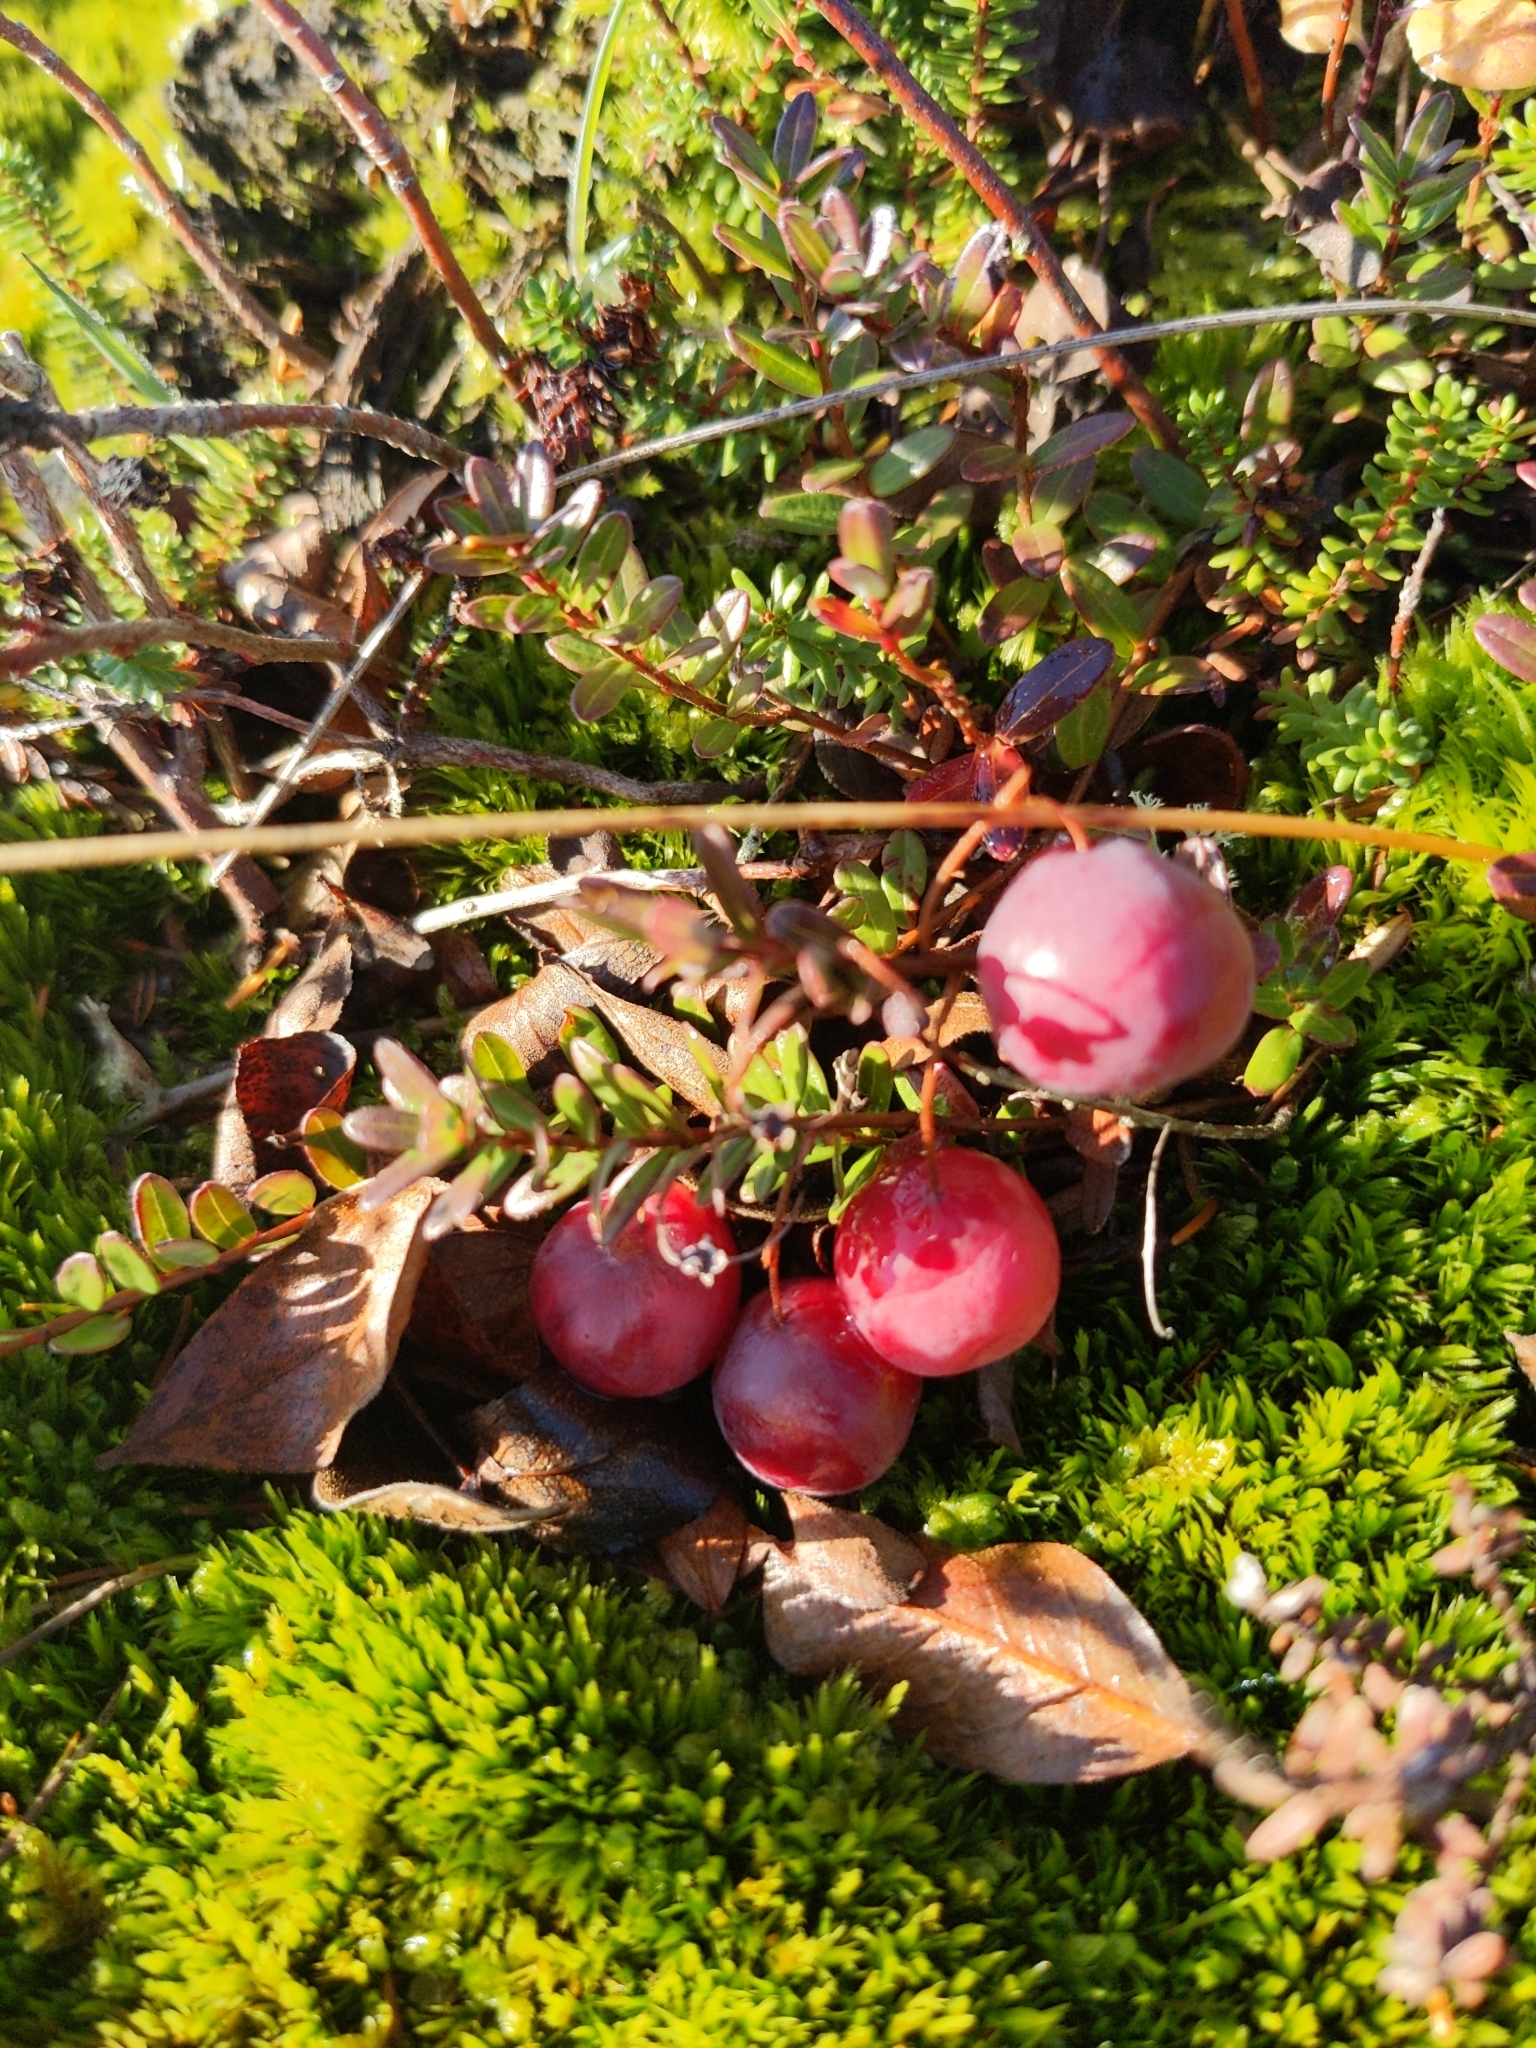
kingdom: Plantae
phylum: Tracheophyta
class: Magnoliopsida
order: Ericales
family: Ericaceae
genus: Vaccinium
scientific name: Vaccinium macrocarpon
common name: American cranberry
